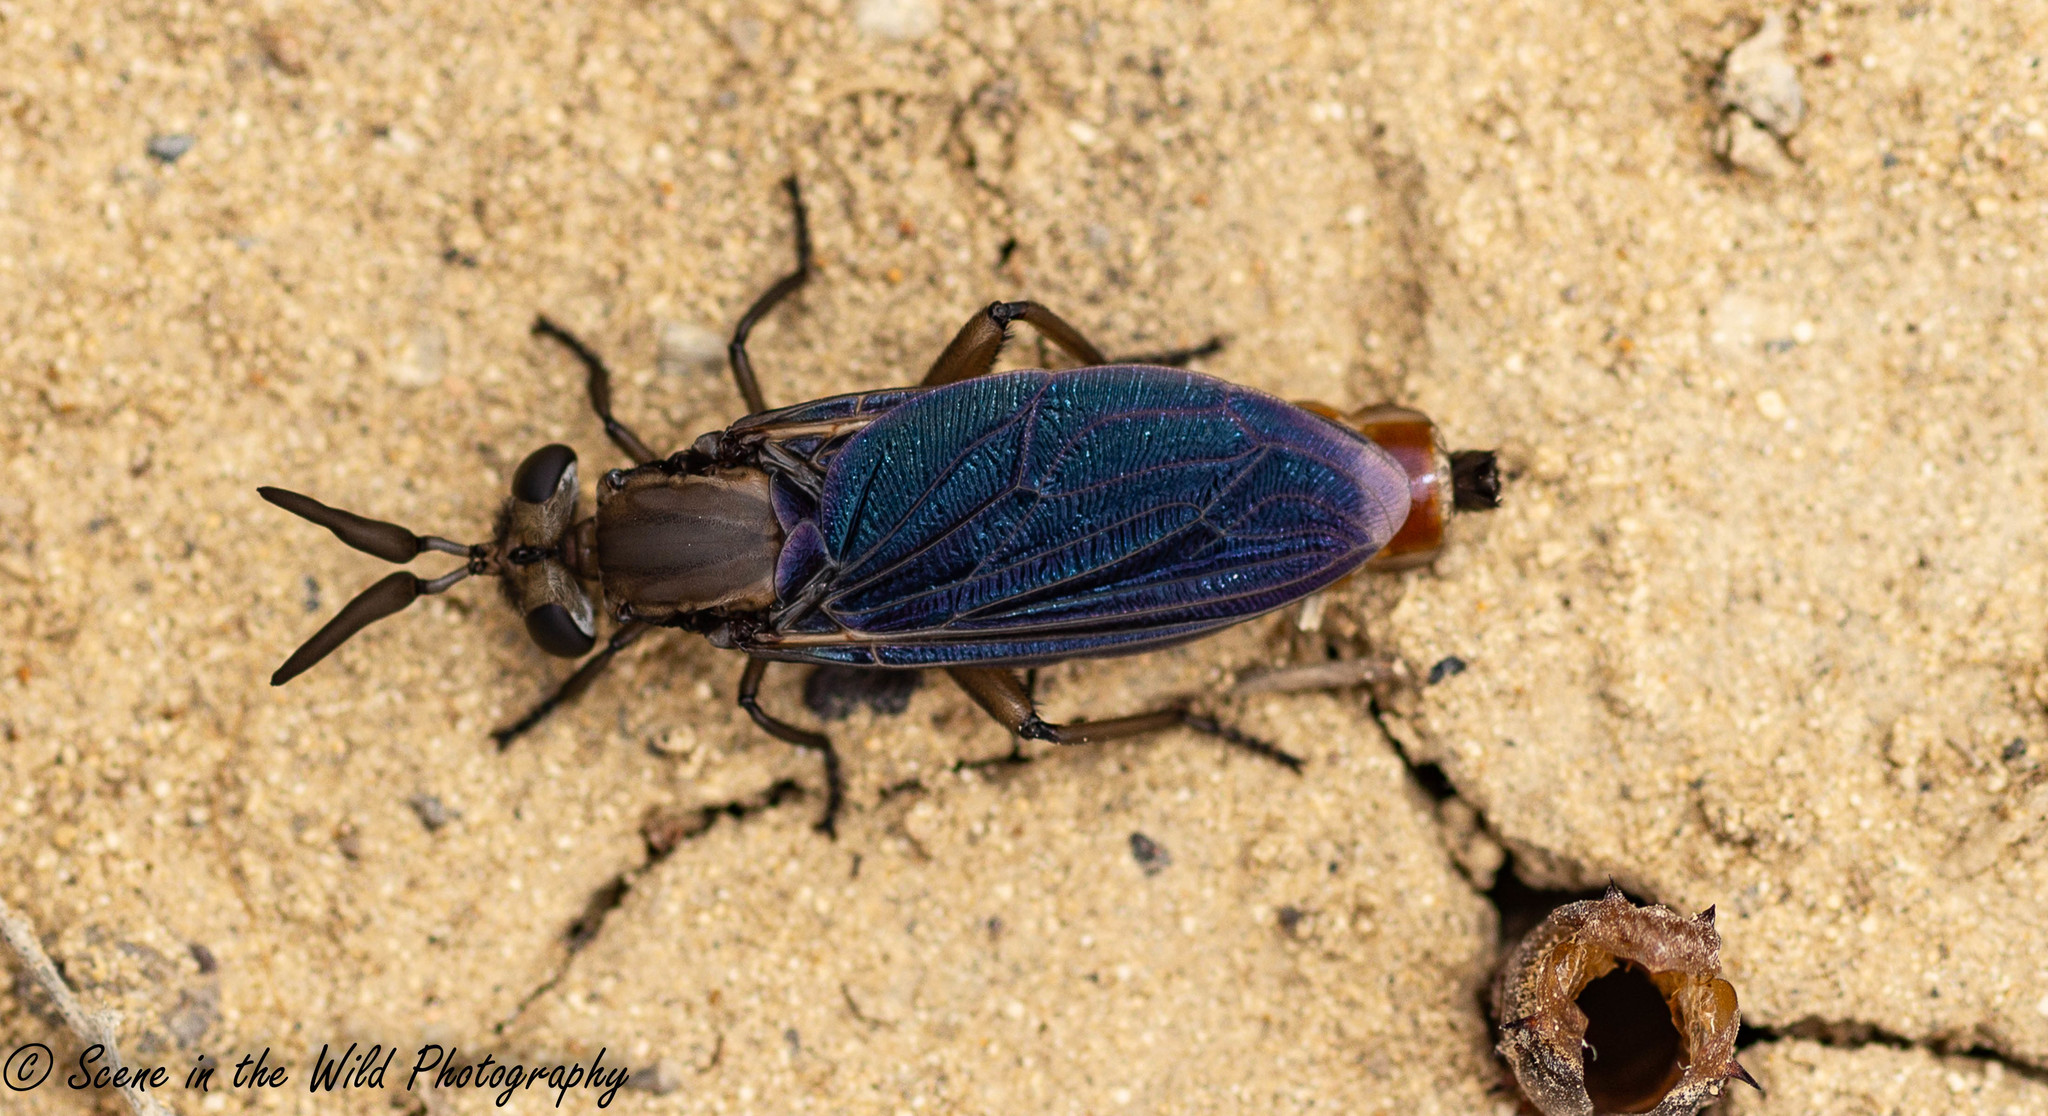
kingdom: Animalia
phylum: Arthropoda
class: Insecta
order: Diptera
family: Mydidae
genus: Phyllomydas
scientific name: Phyllomydas phyllocerus
